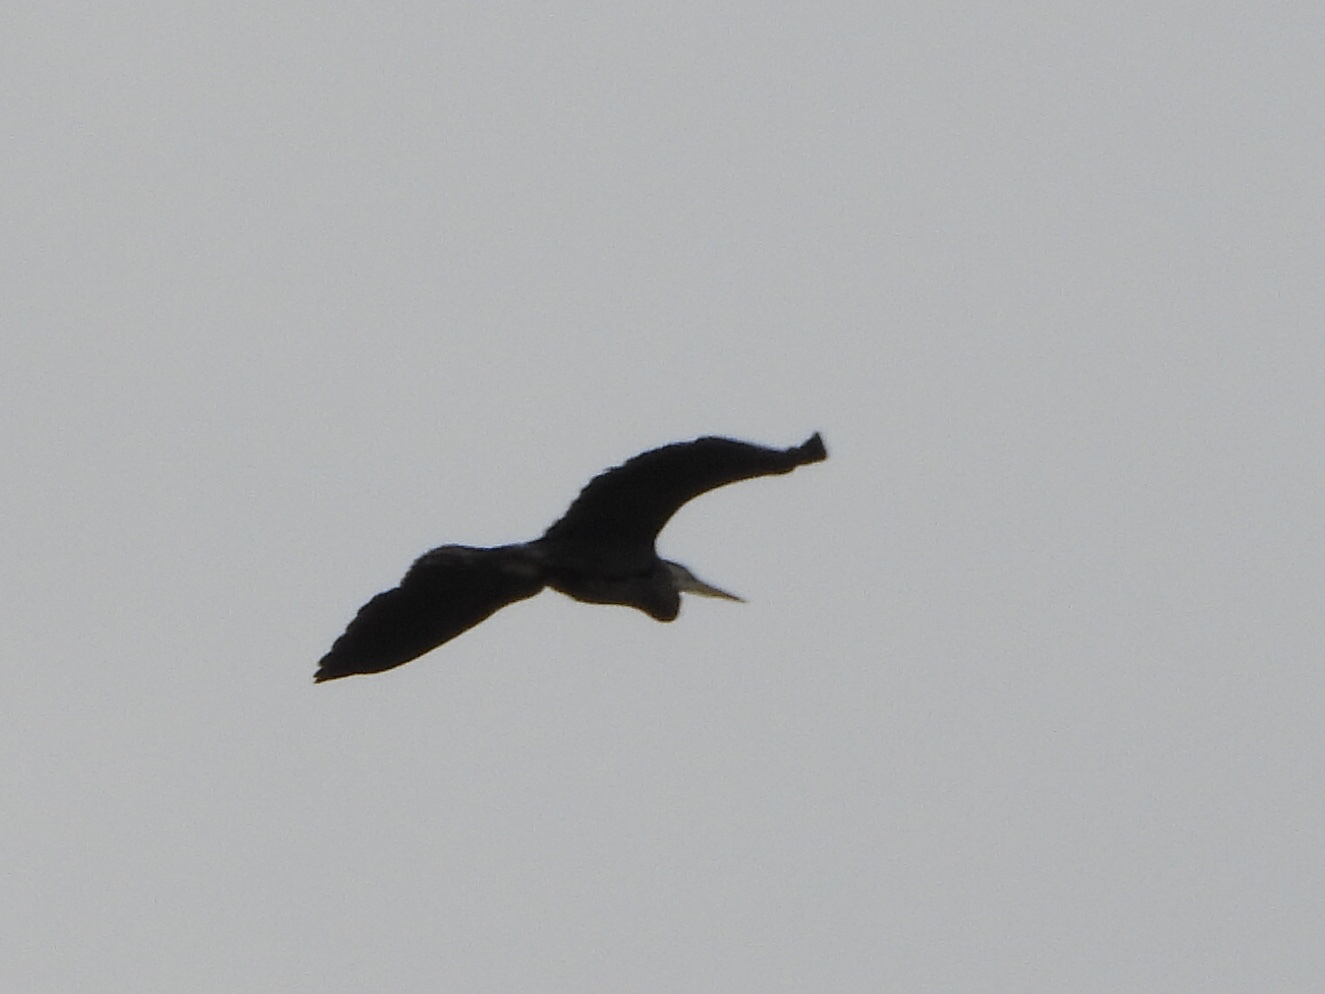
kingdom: Animalia
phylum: Chordata
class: Aves
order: Pelecaniformes
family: Ardeidae
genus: Ardea
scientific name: Ardea herodias
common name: Great blue heron
